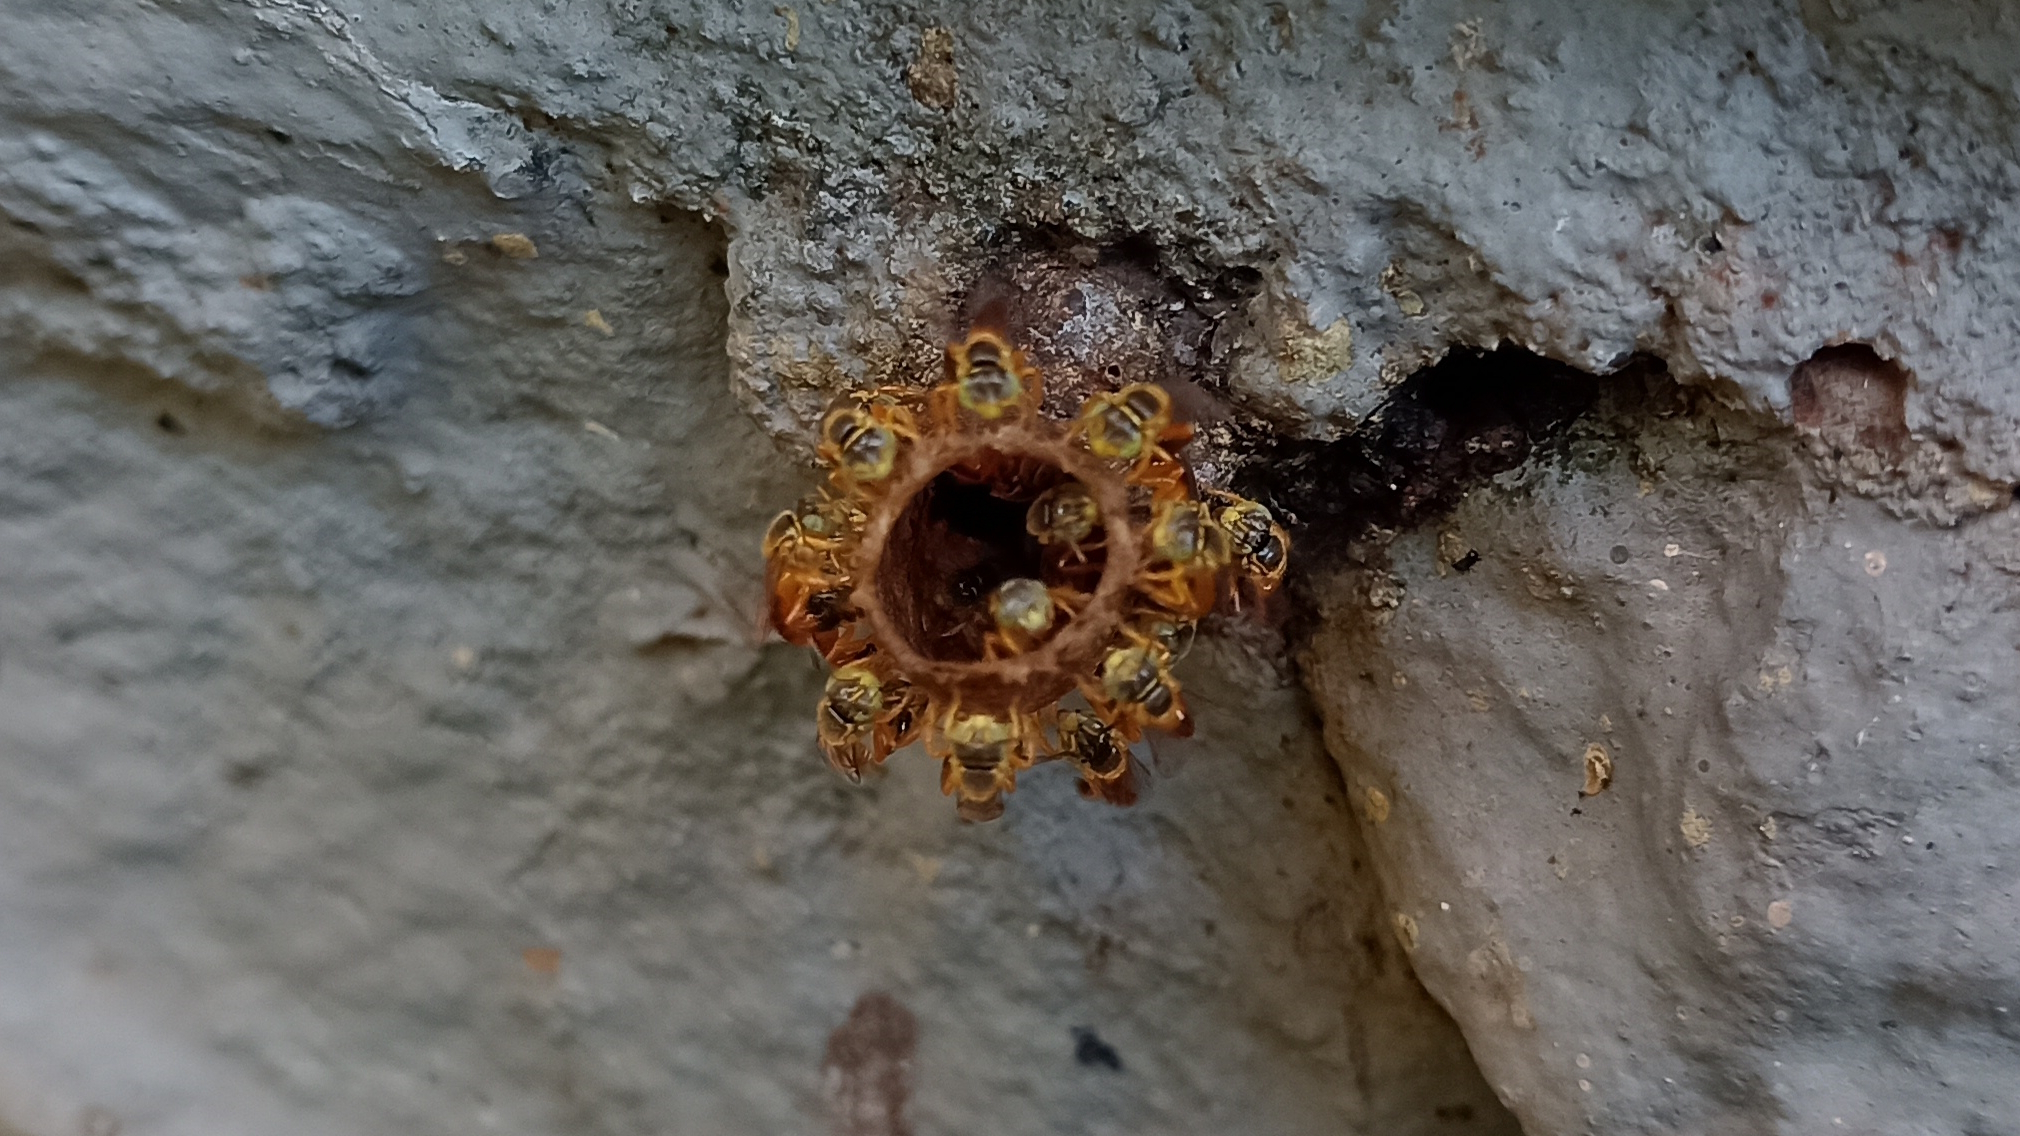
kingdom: Animalia
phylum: Arthropoda
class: Insecta
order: Hymenoptera
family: Apidae
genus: Tetragonisca
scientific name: Tetragonisca angustula
